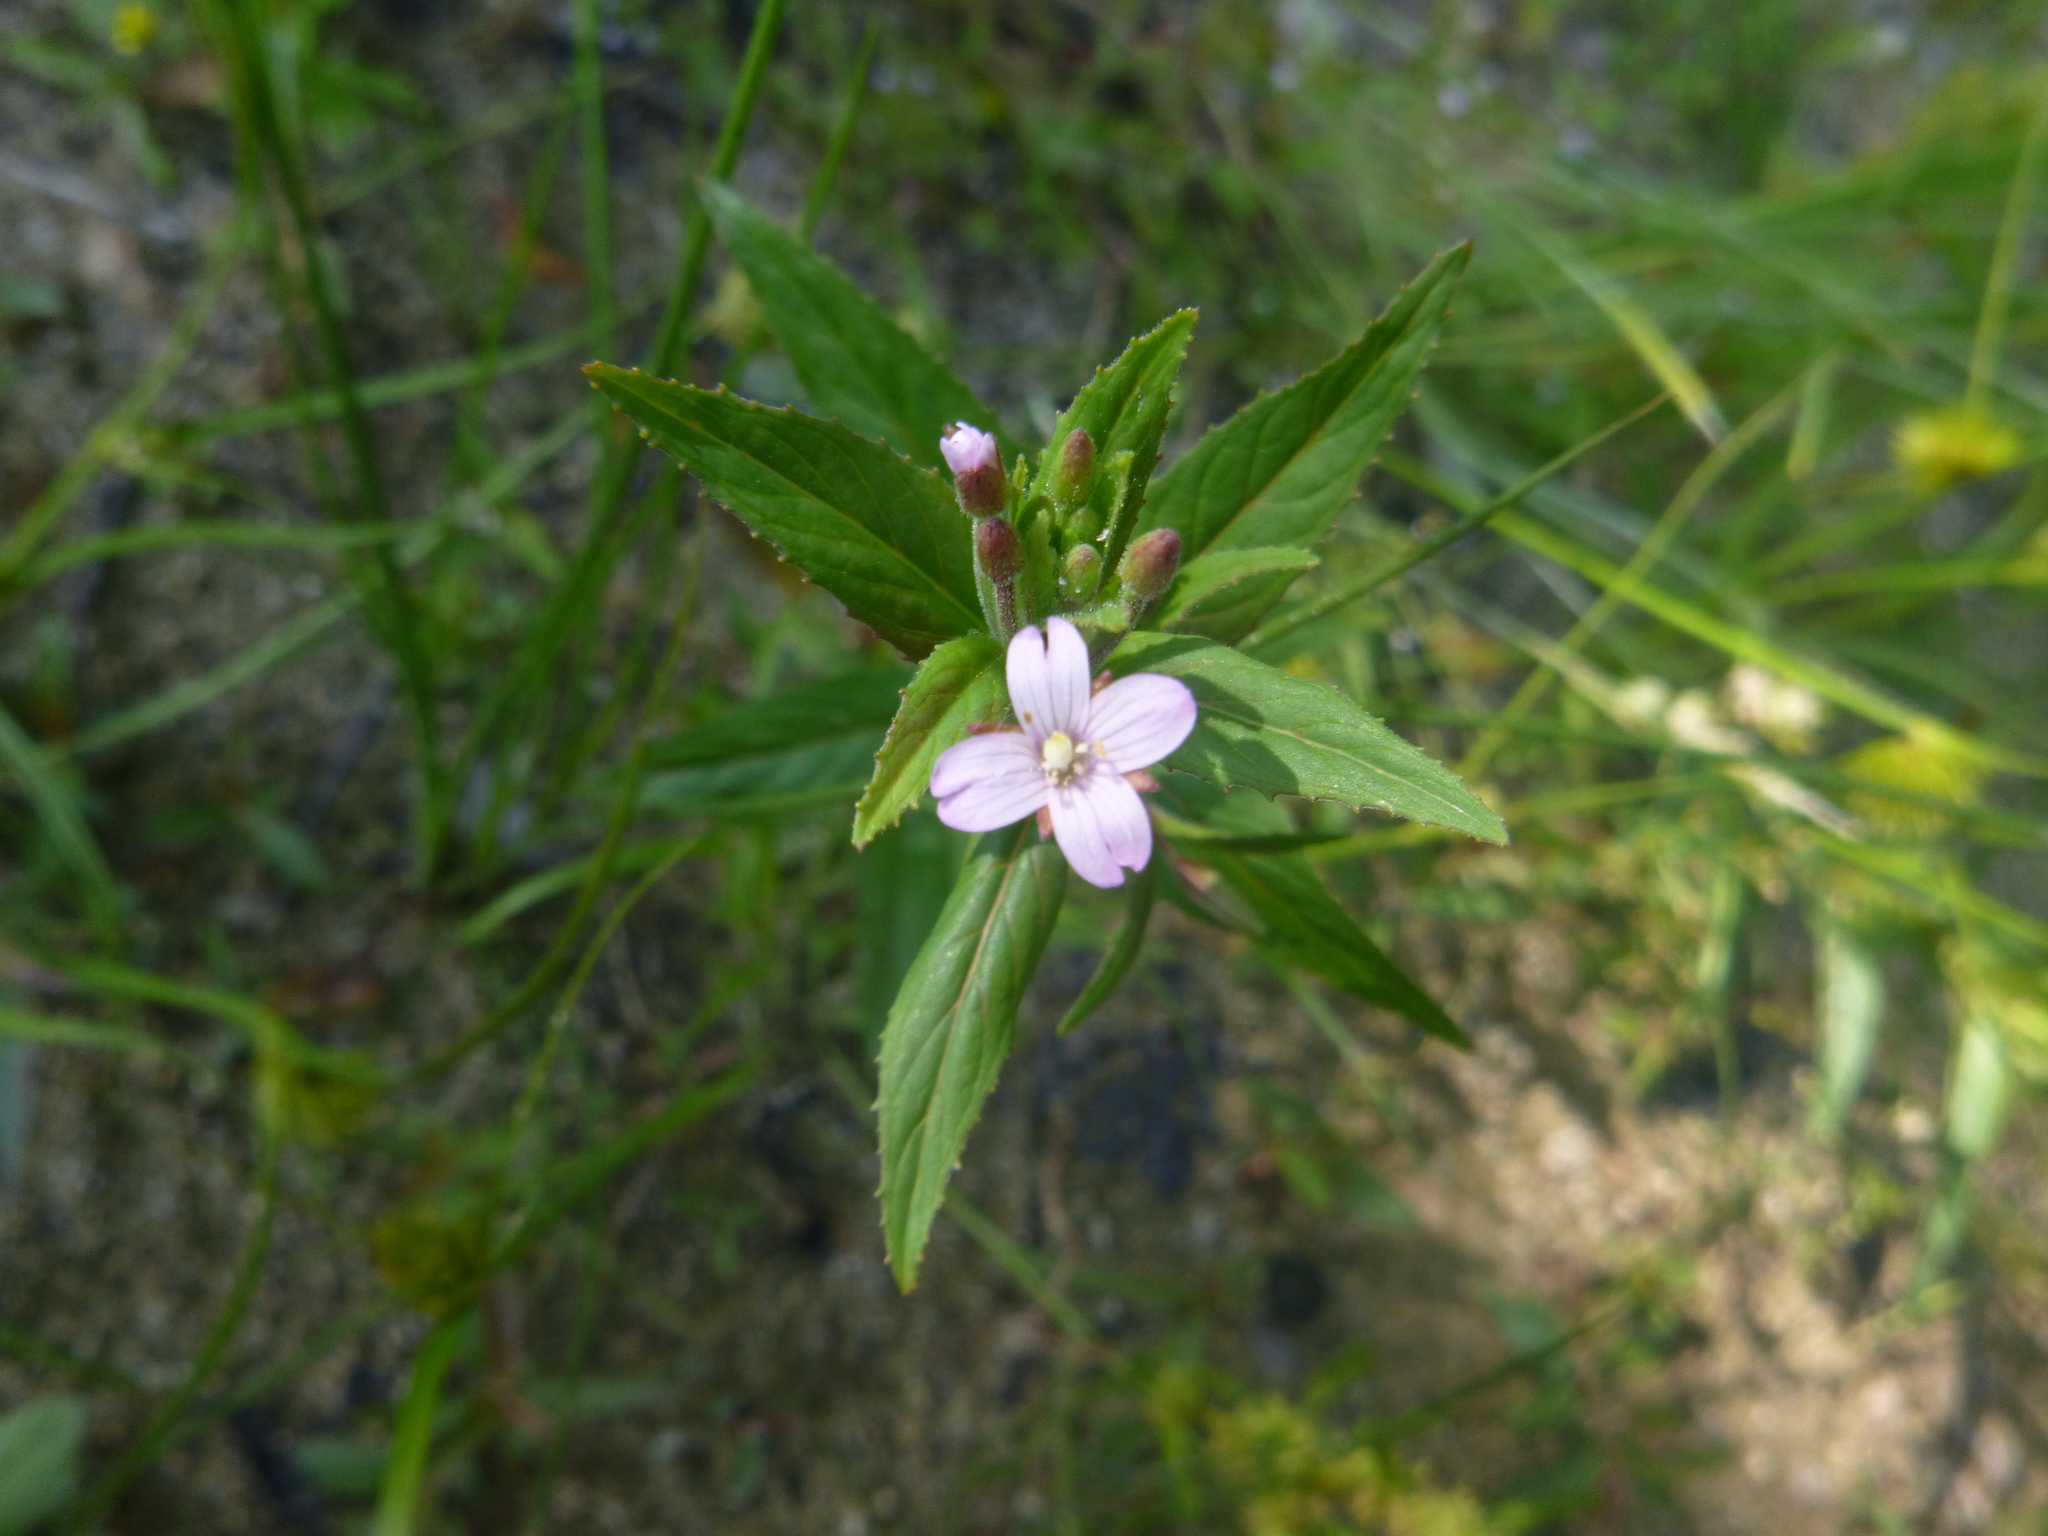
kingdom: Plantae
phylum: Tracheophyta
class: Magnoliopsida
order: Myrtales
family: Onagraceae
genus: Epilobium
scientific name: Epilobium ciliatum
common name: American willowherb
